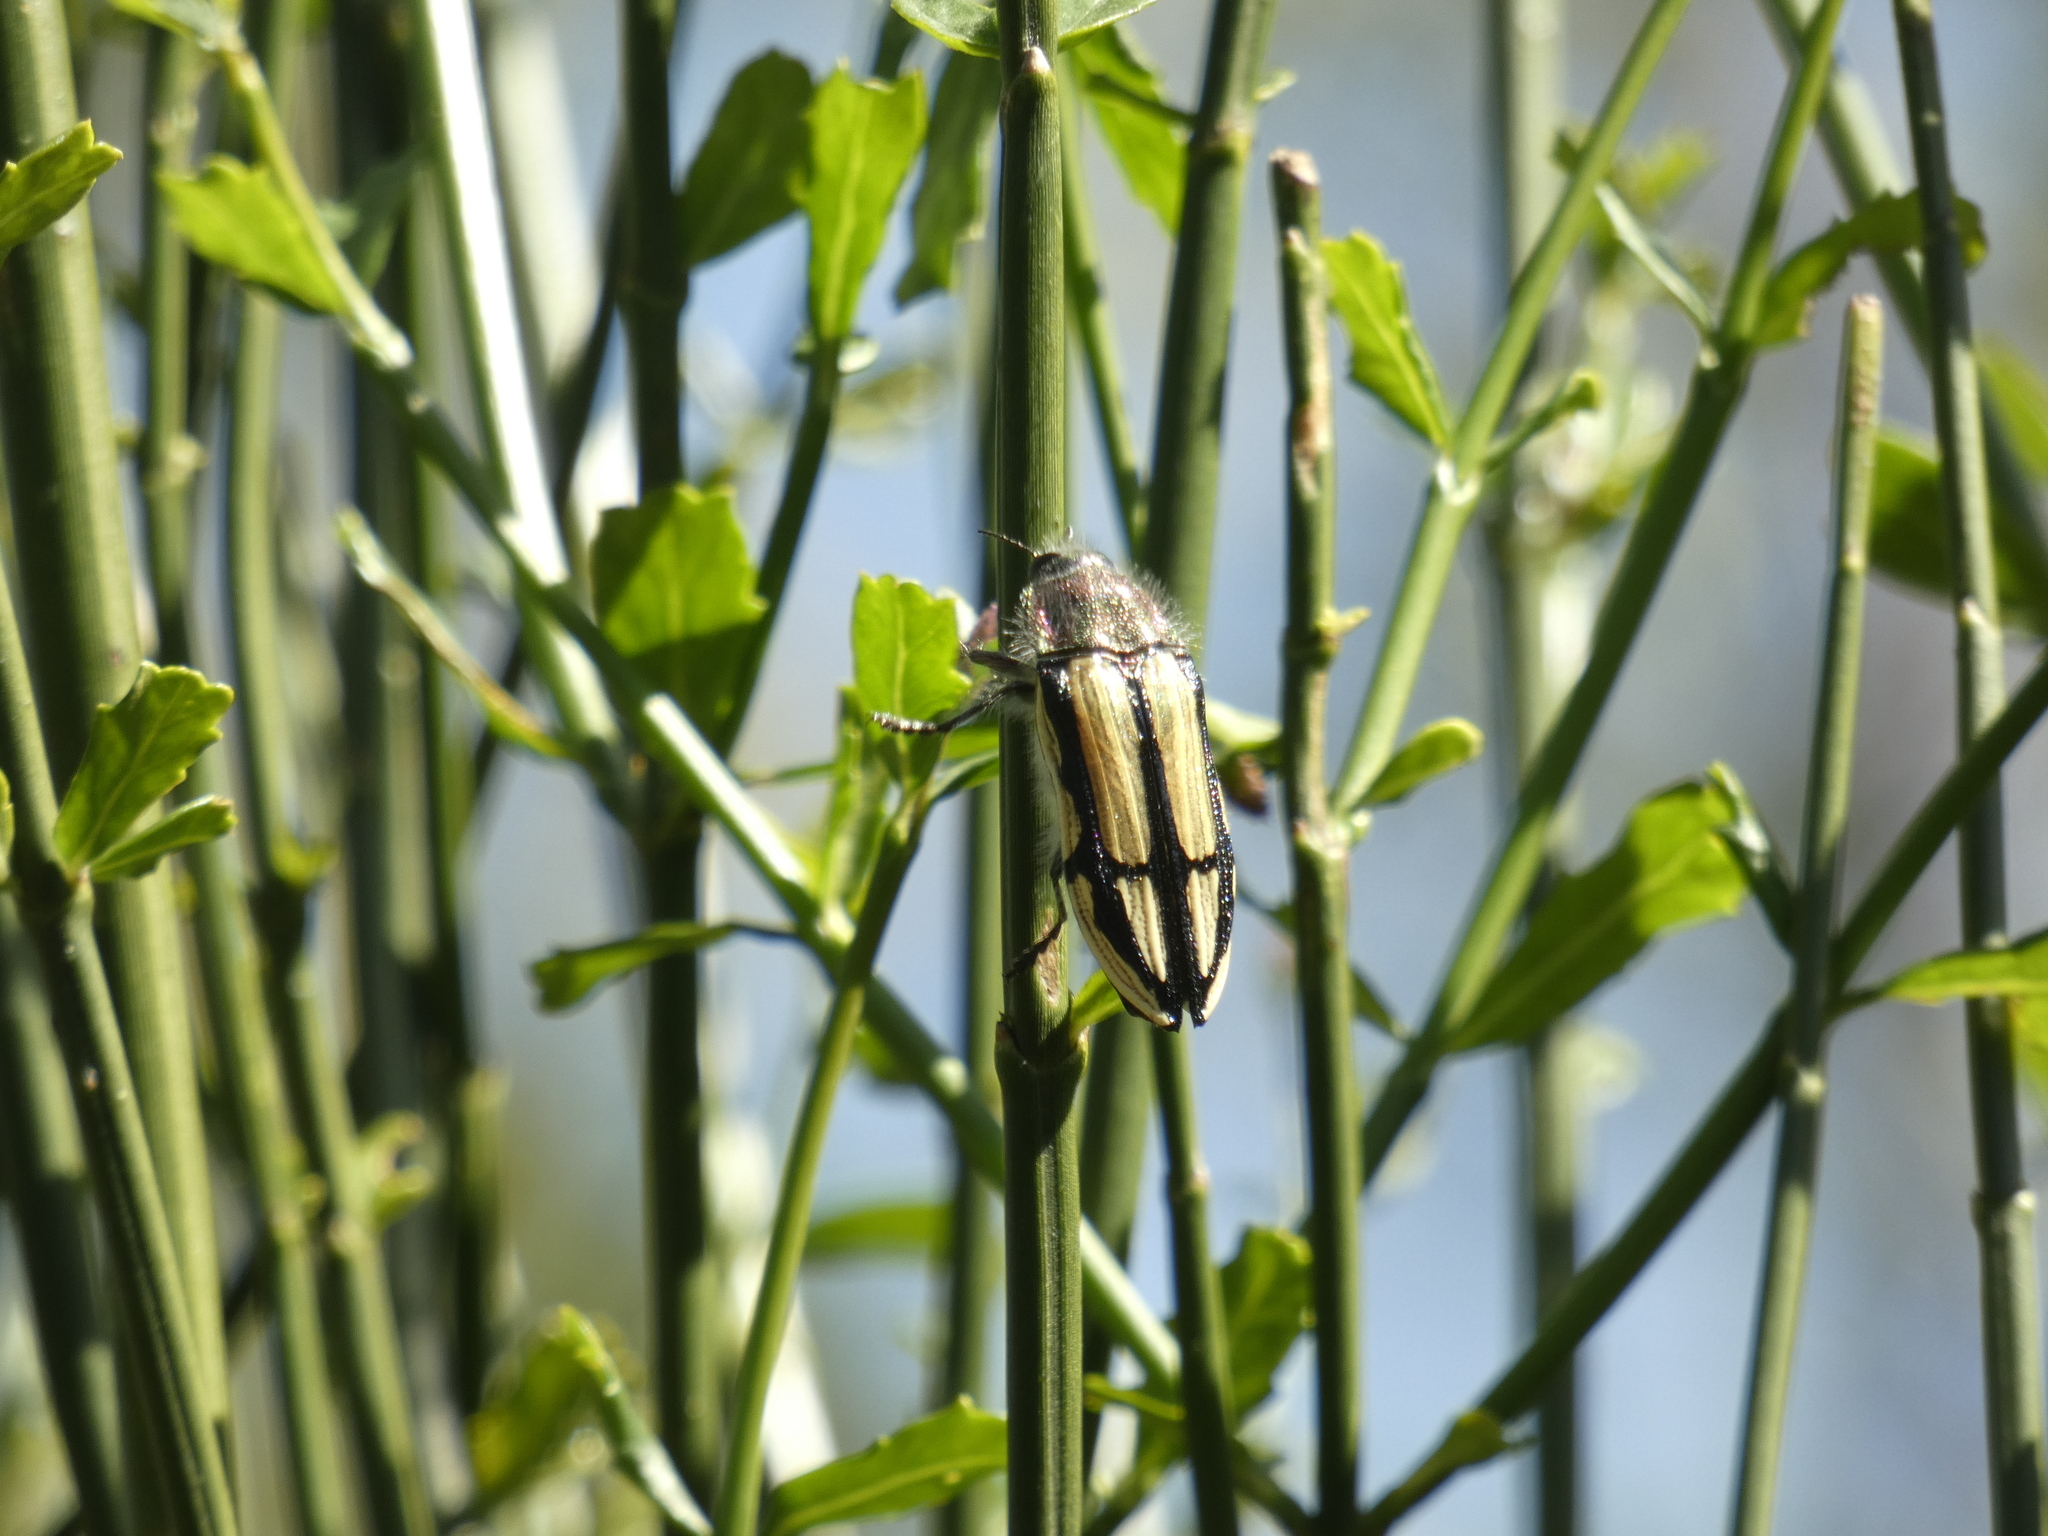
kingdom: Animalia
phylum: Arthropoda
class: Insecta
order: Coleoptera
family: Buprestidae
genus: Conognatha
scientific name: Conognatha souverbii
